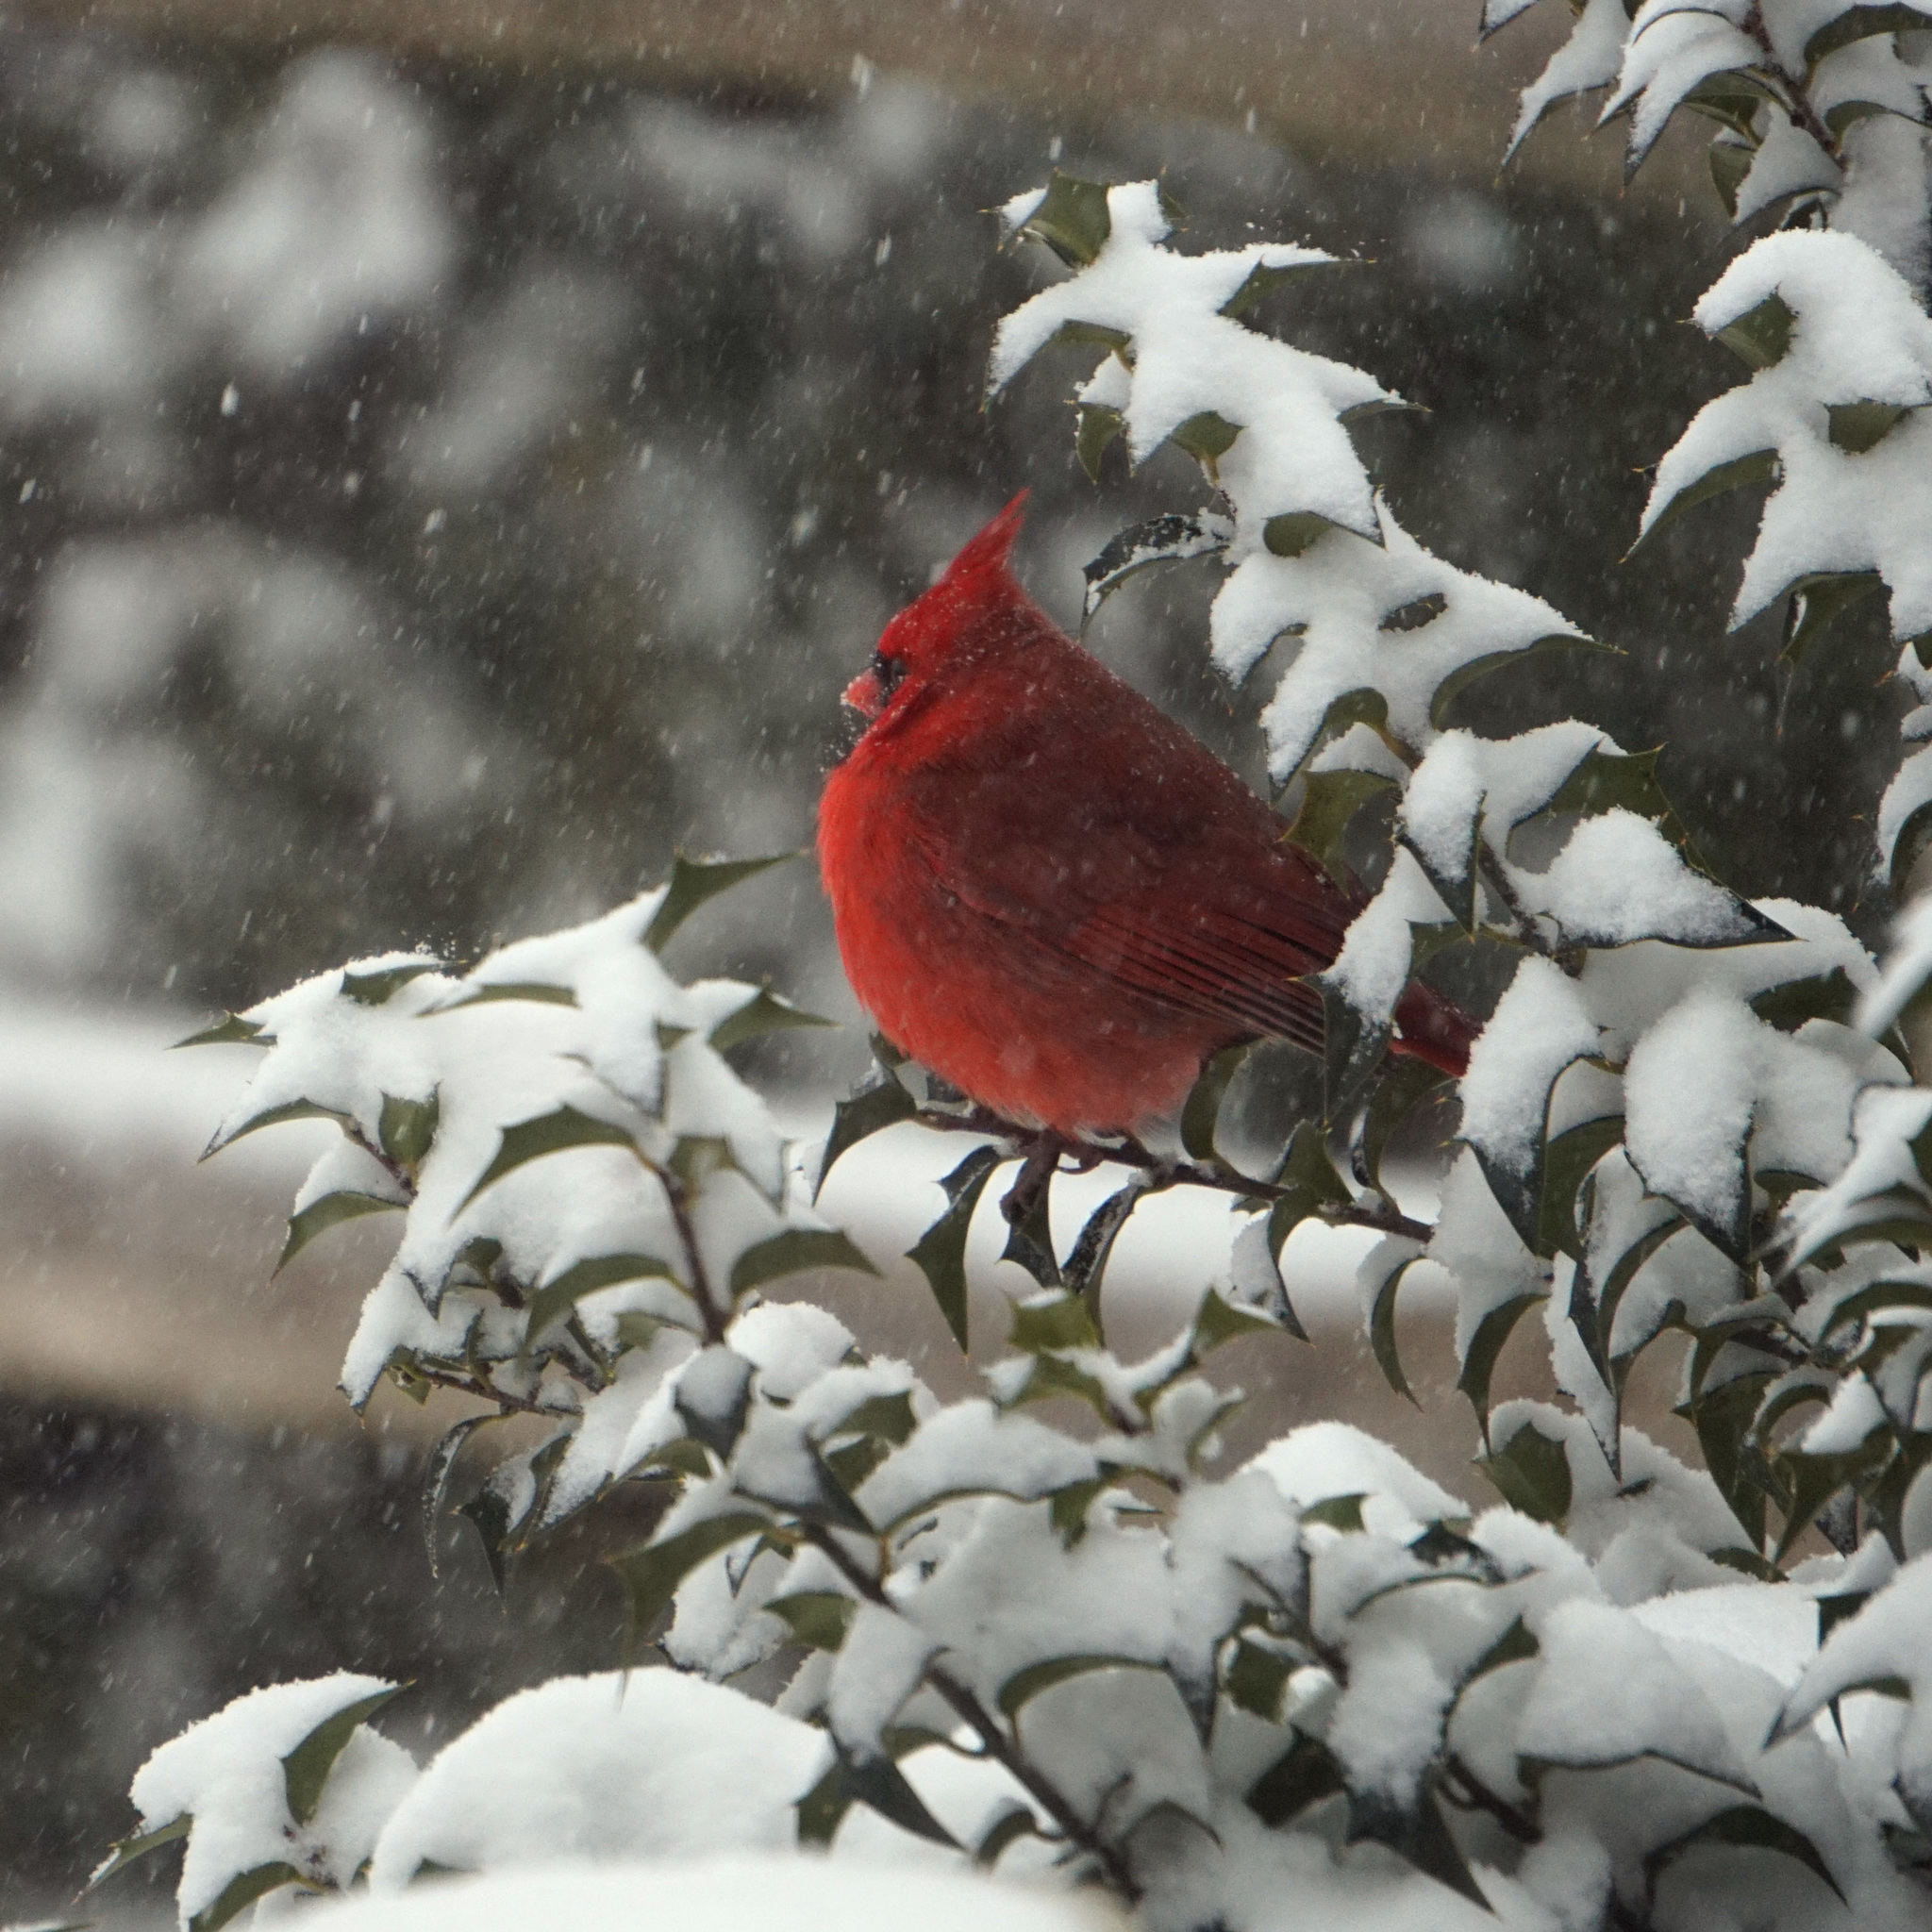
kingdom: Animalia
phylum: Chordata
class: Aves
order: Passeriformes
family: Cardinalidae
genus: Cardinalis
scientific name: Cardinalis cardinalis
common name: Northern cardinal
